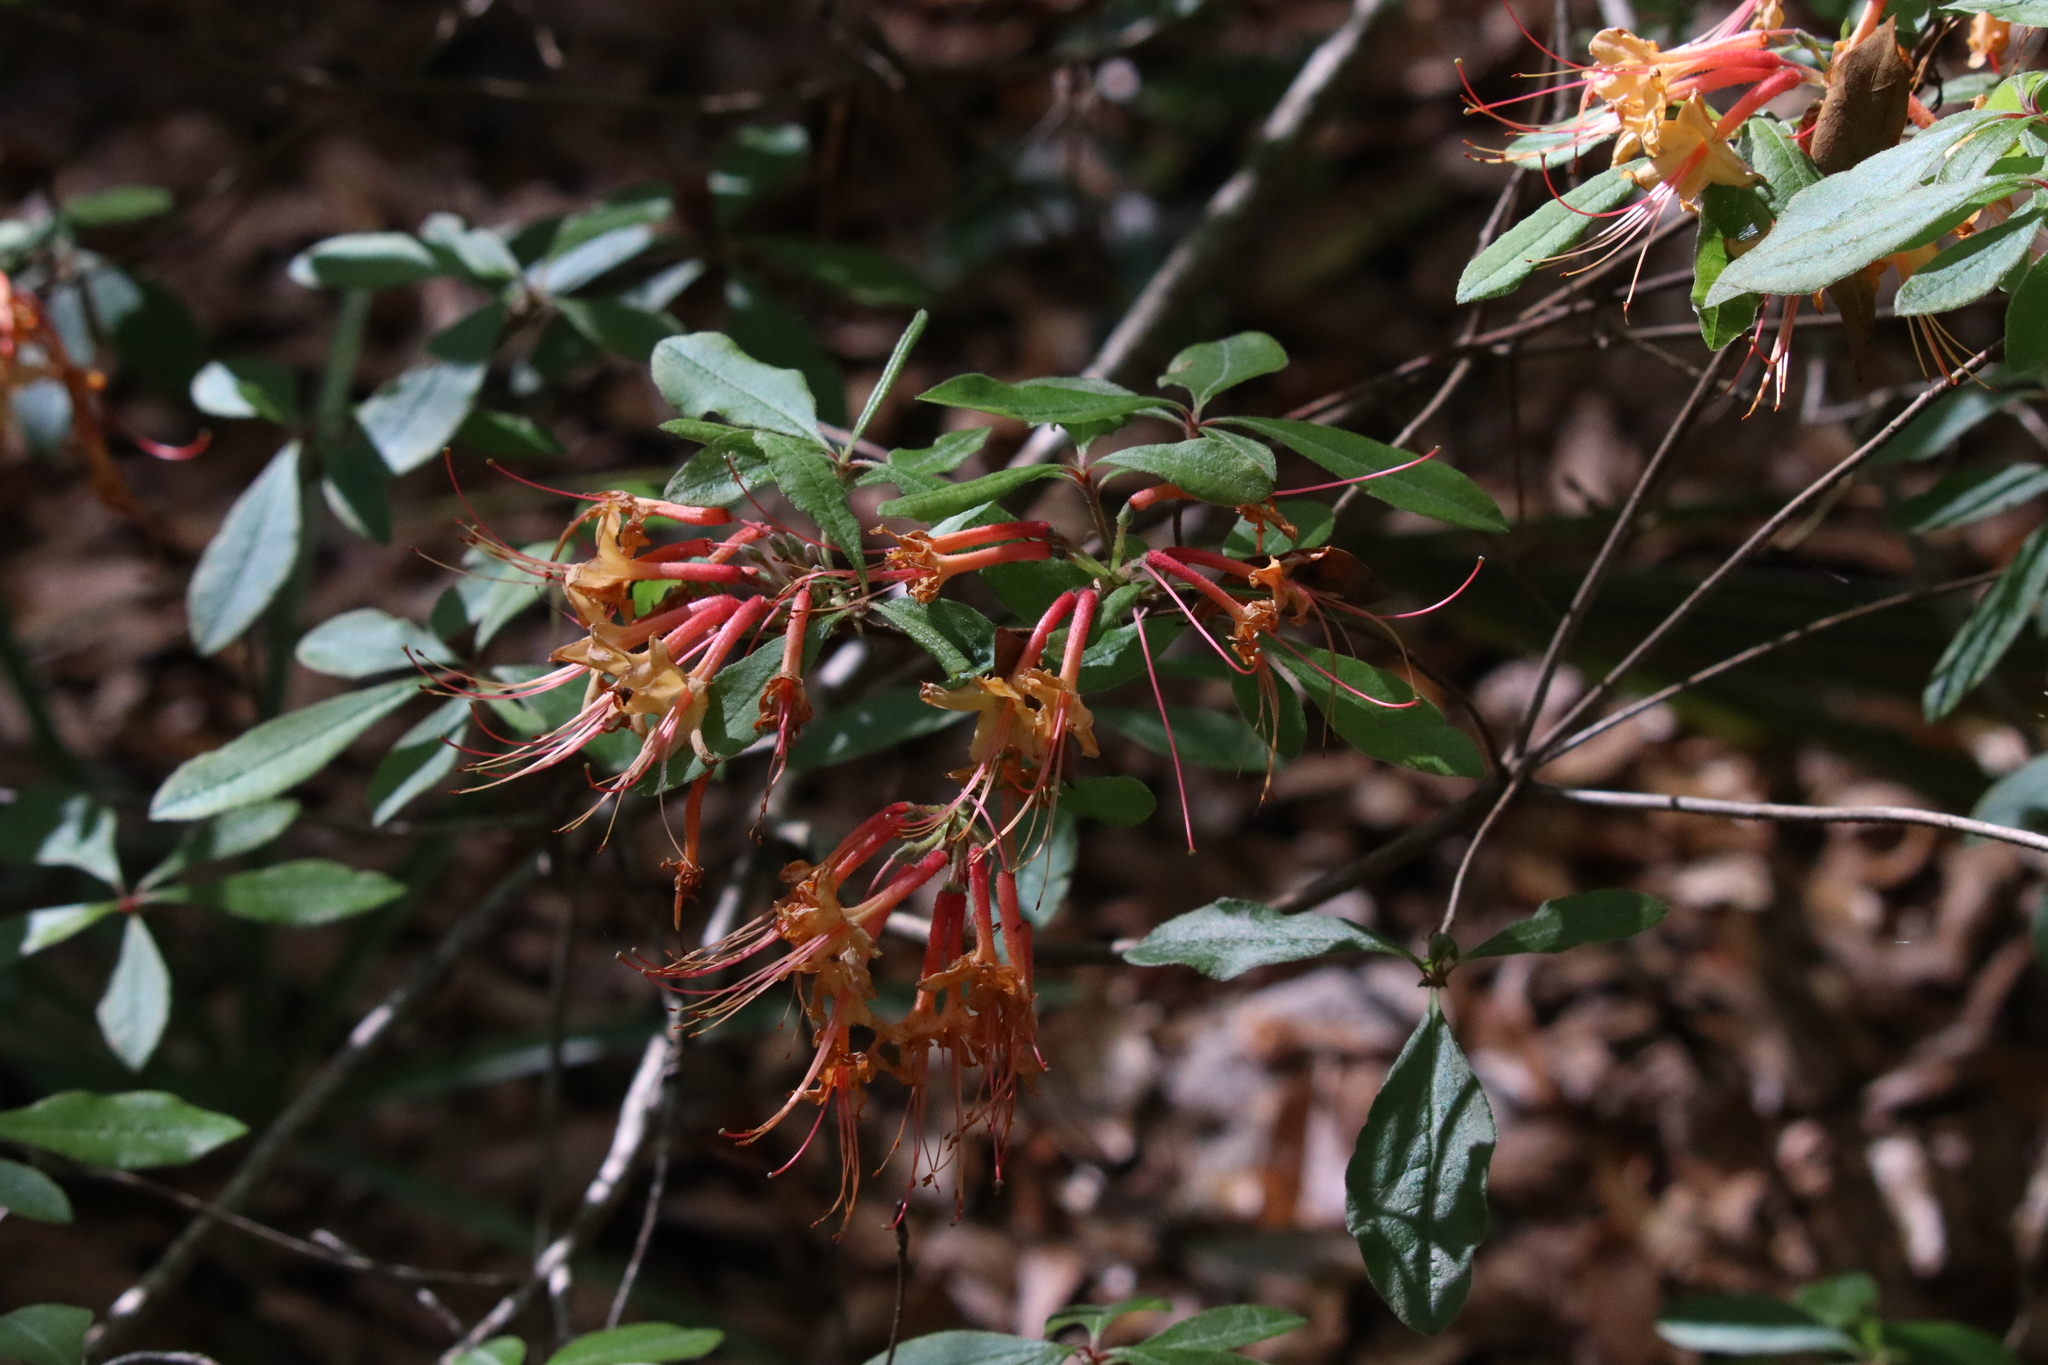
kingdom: Plantae
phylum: Tracheophyta
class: Magnoliopsida
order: Ericales
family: Ericaceae
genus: Rhododendron
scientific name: Rhododendron austrinum
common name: Florida azalea
